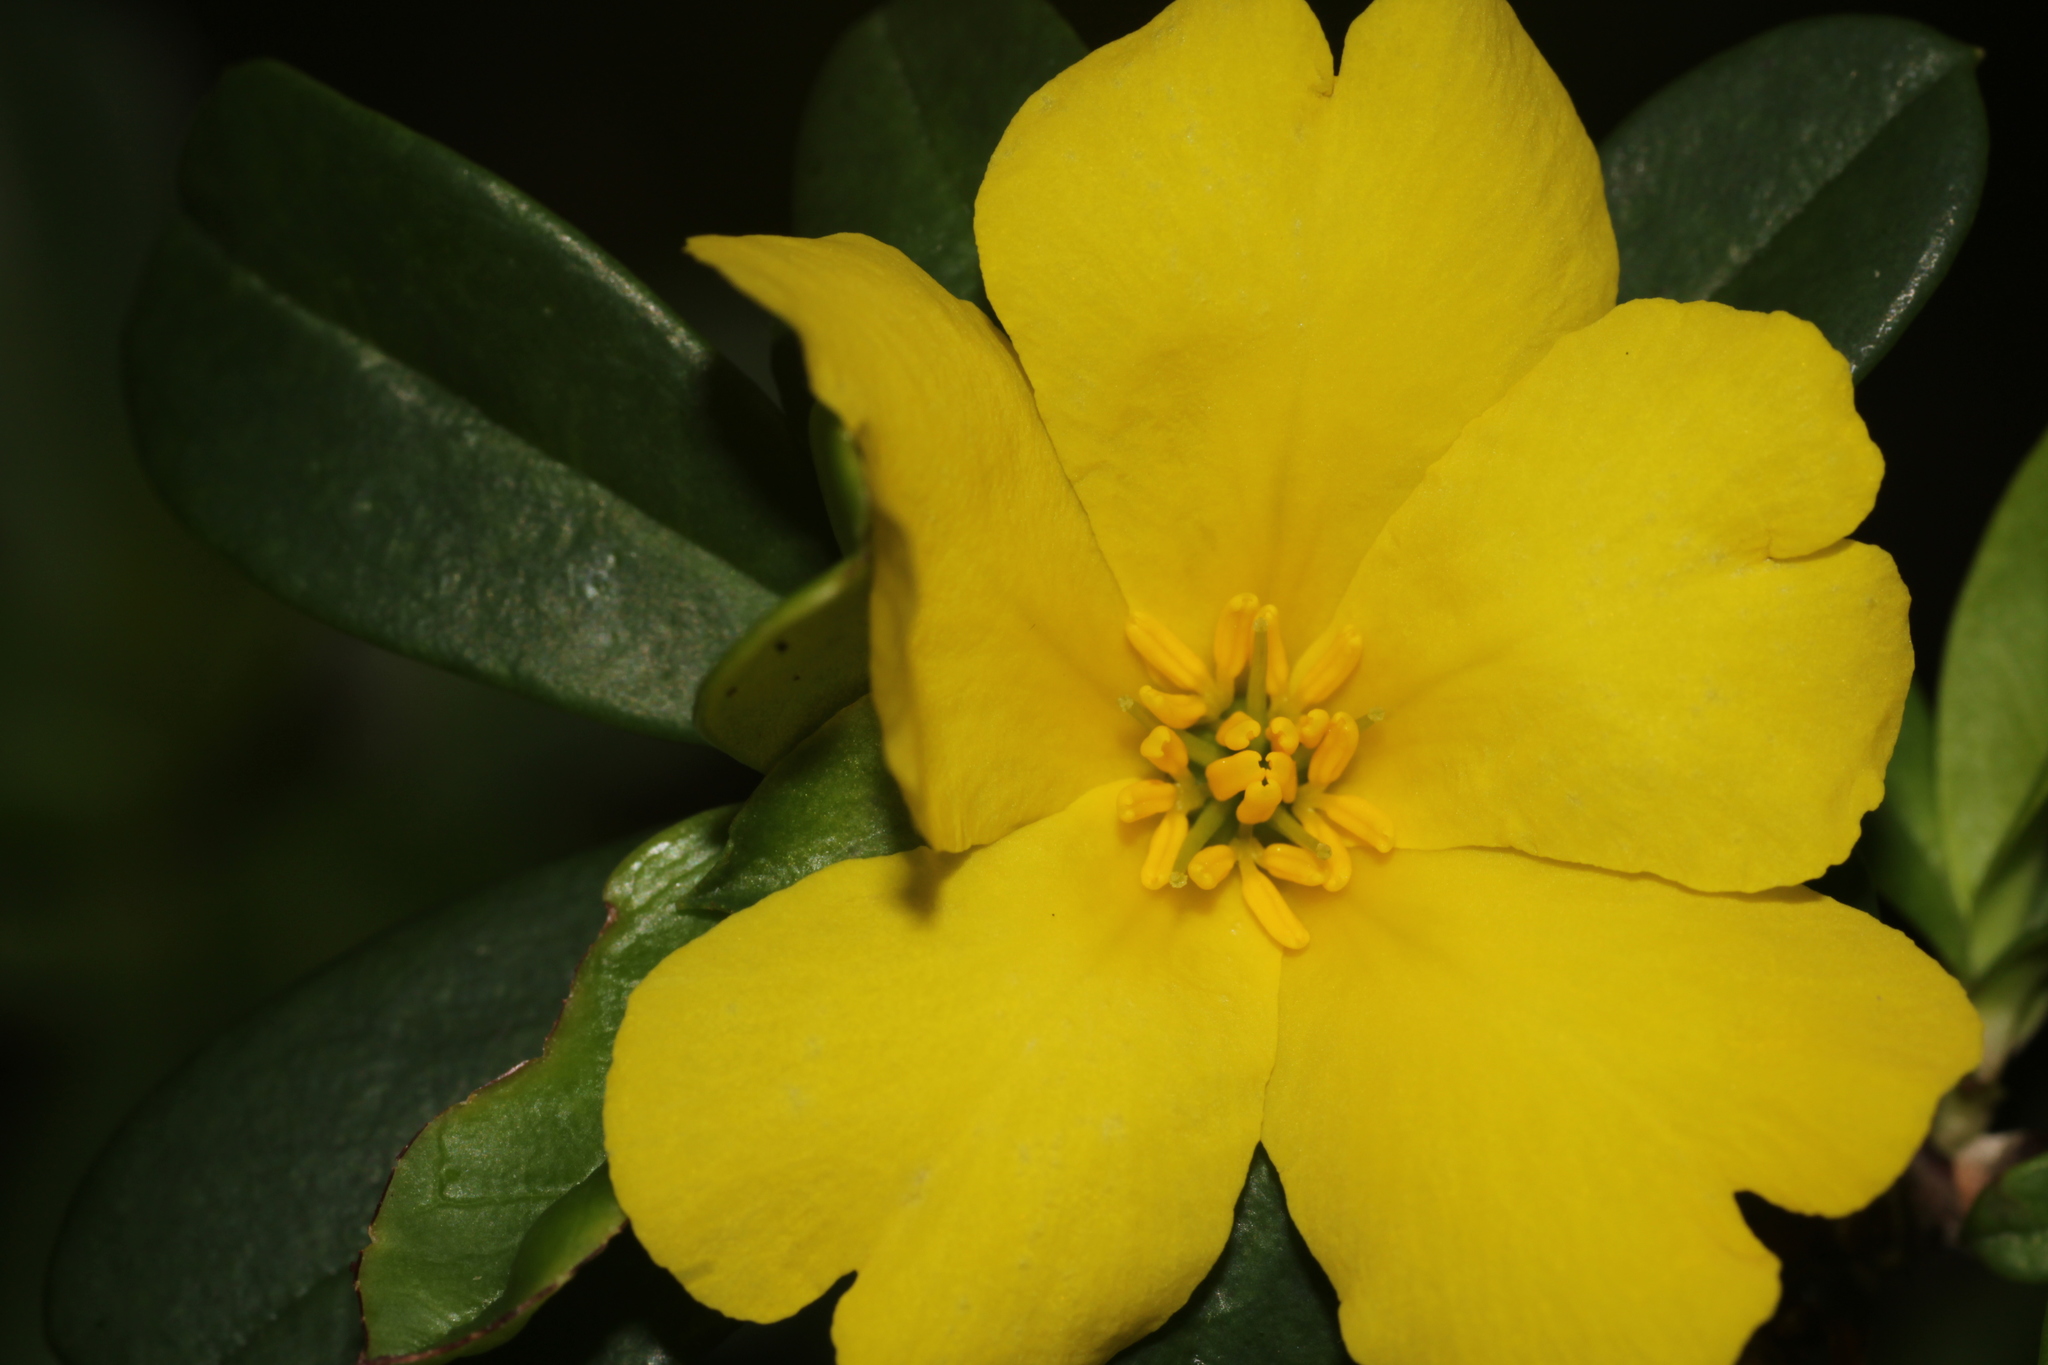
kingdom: Plantae
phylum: Tracheophyta
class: Magnoliopsida
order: Dilleniales
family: Dilleniaceae
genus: Hibbertia
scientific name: Hibbertia cuneiformis
